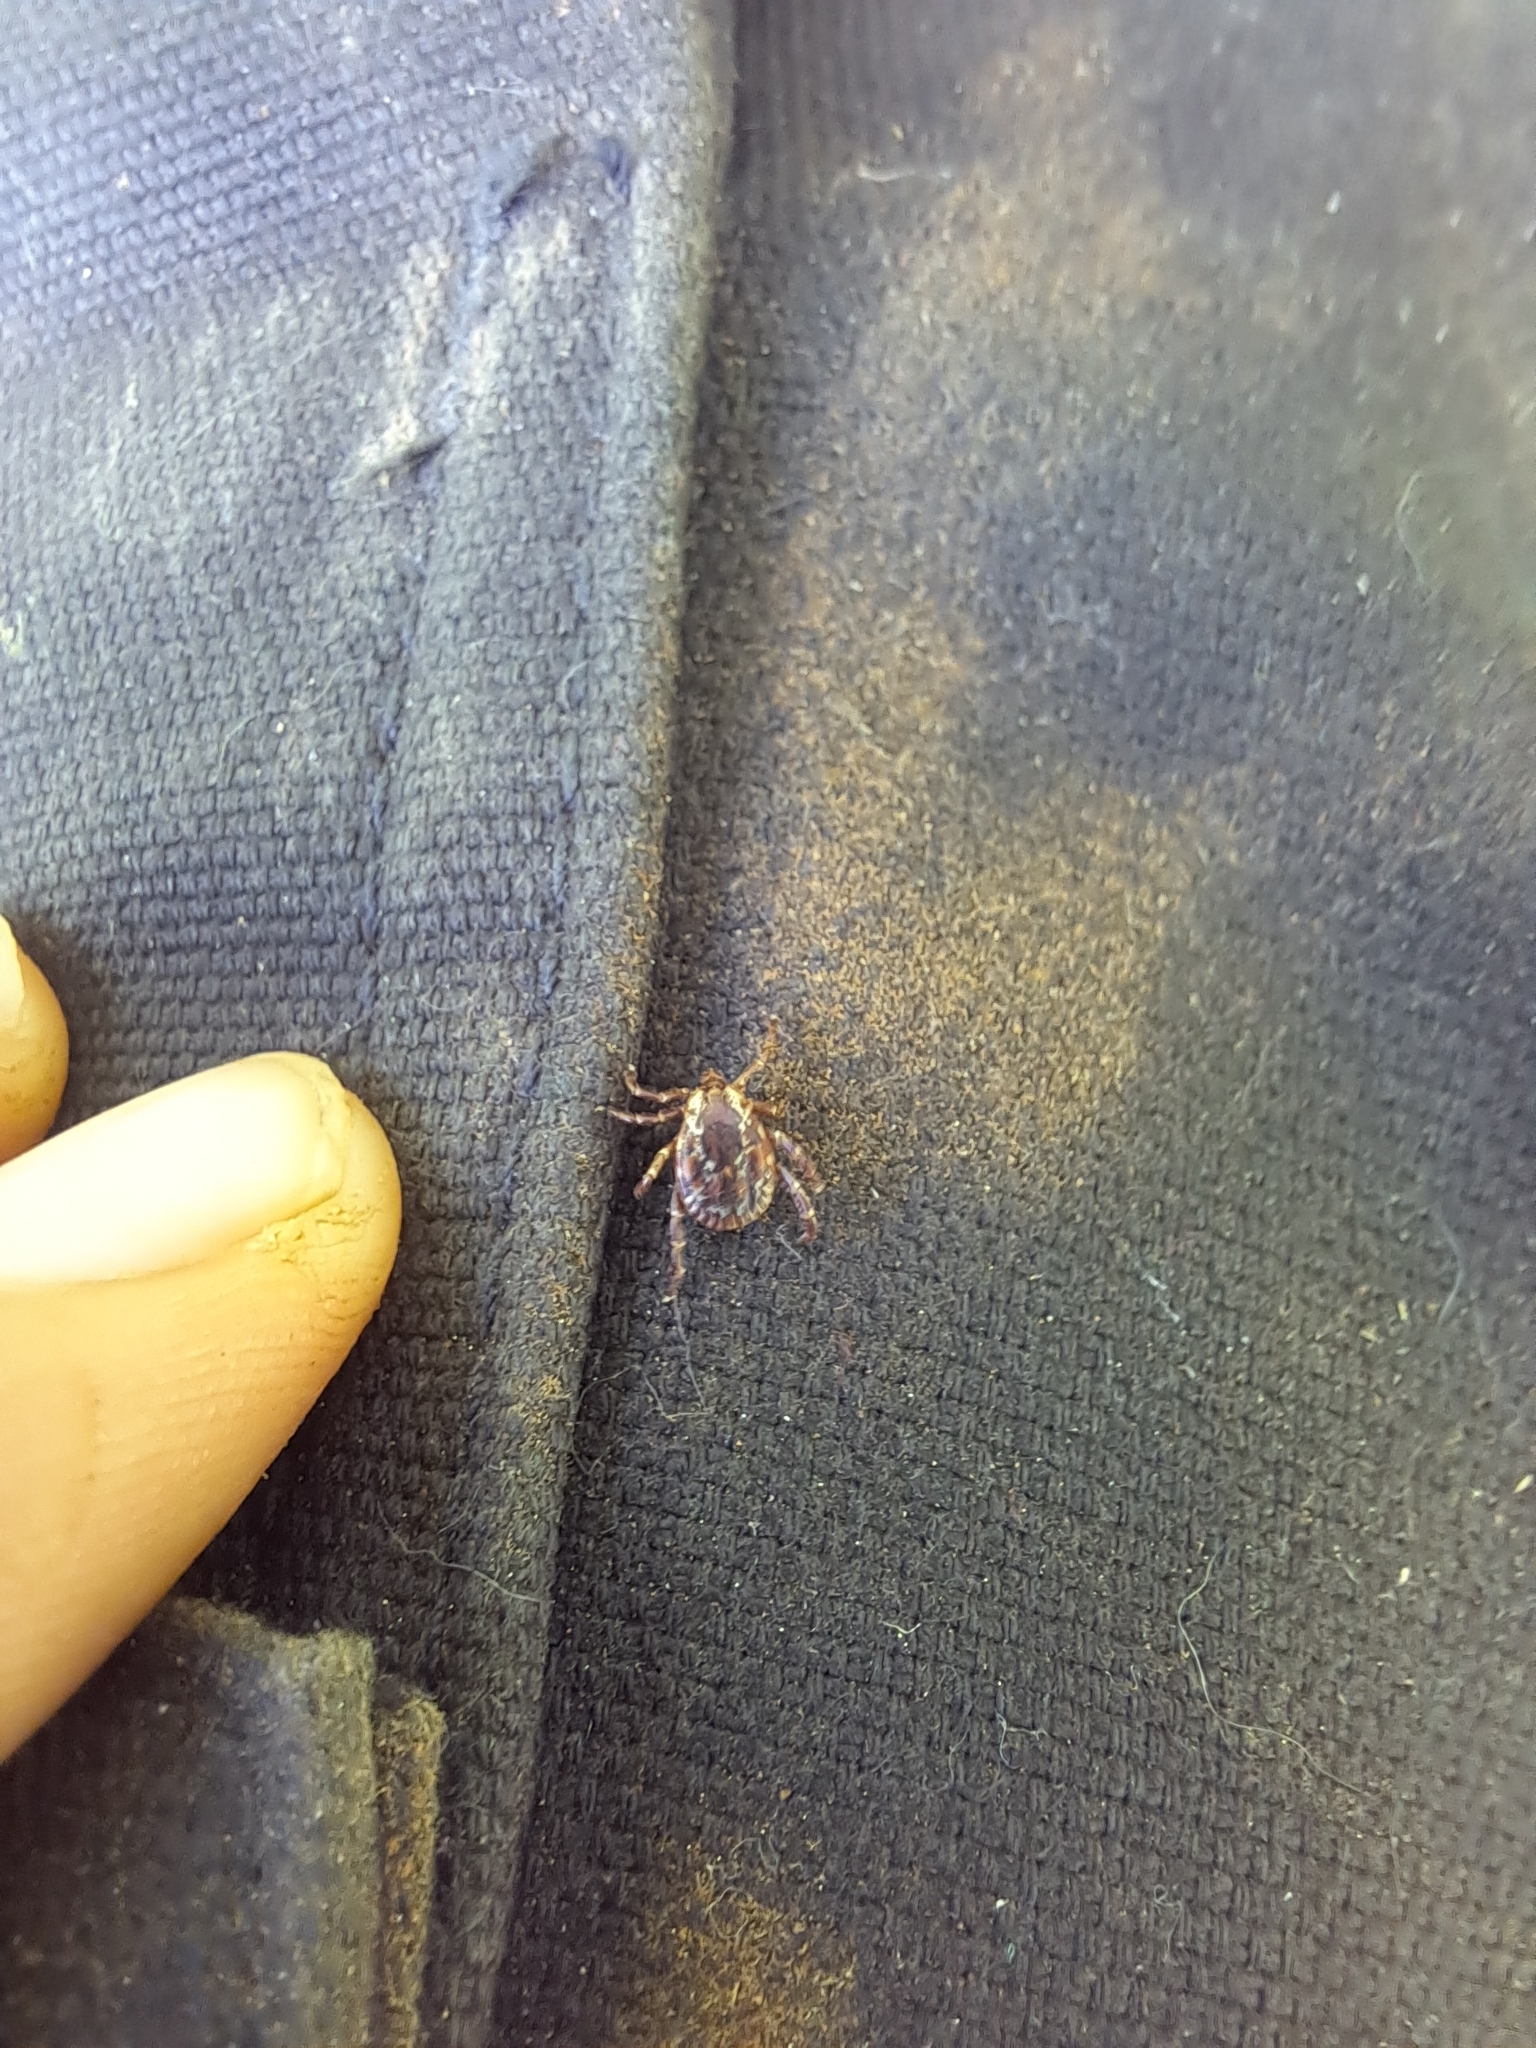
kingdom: Animalia
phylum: Arthropoda
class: Arachnida
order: Ixodida
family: Ixodidae
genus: Dermacentor
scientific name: Dermacentor variabilis
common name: American dog tick
